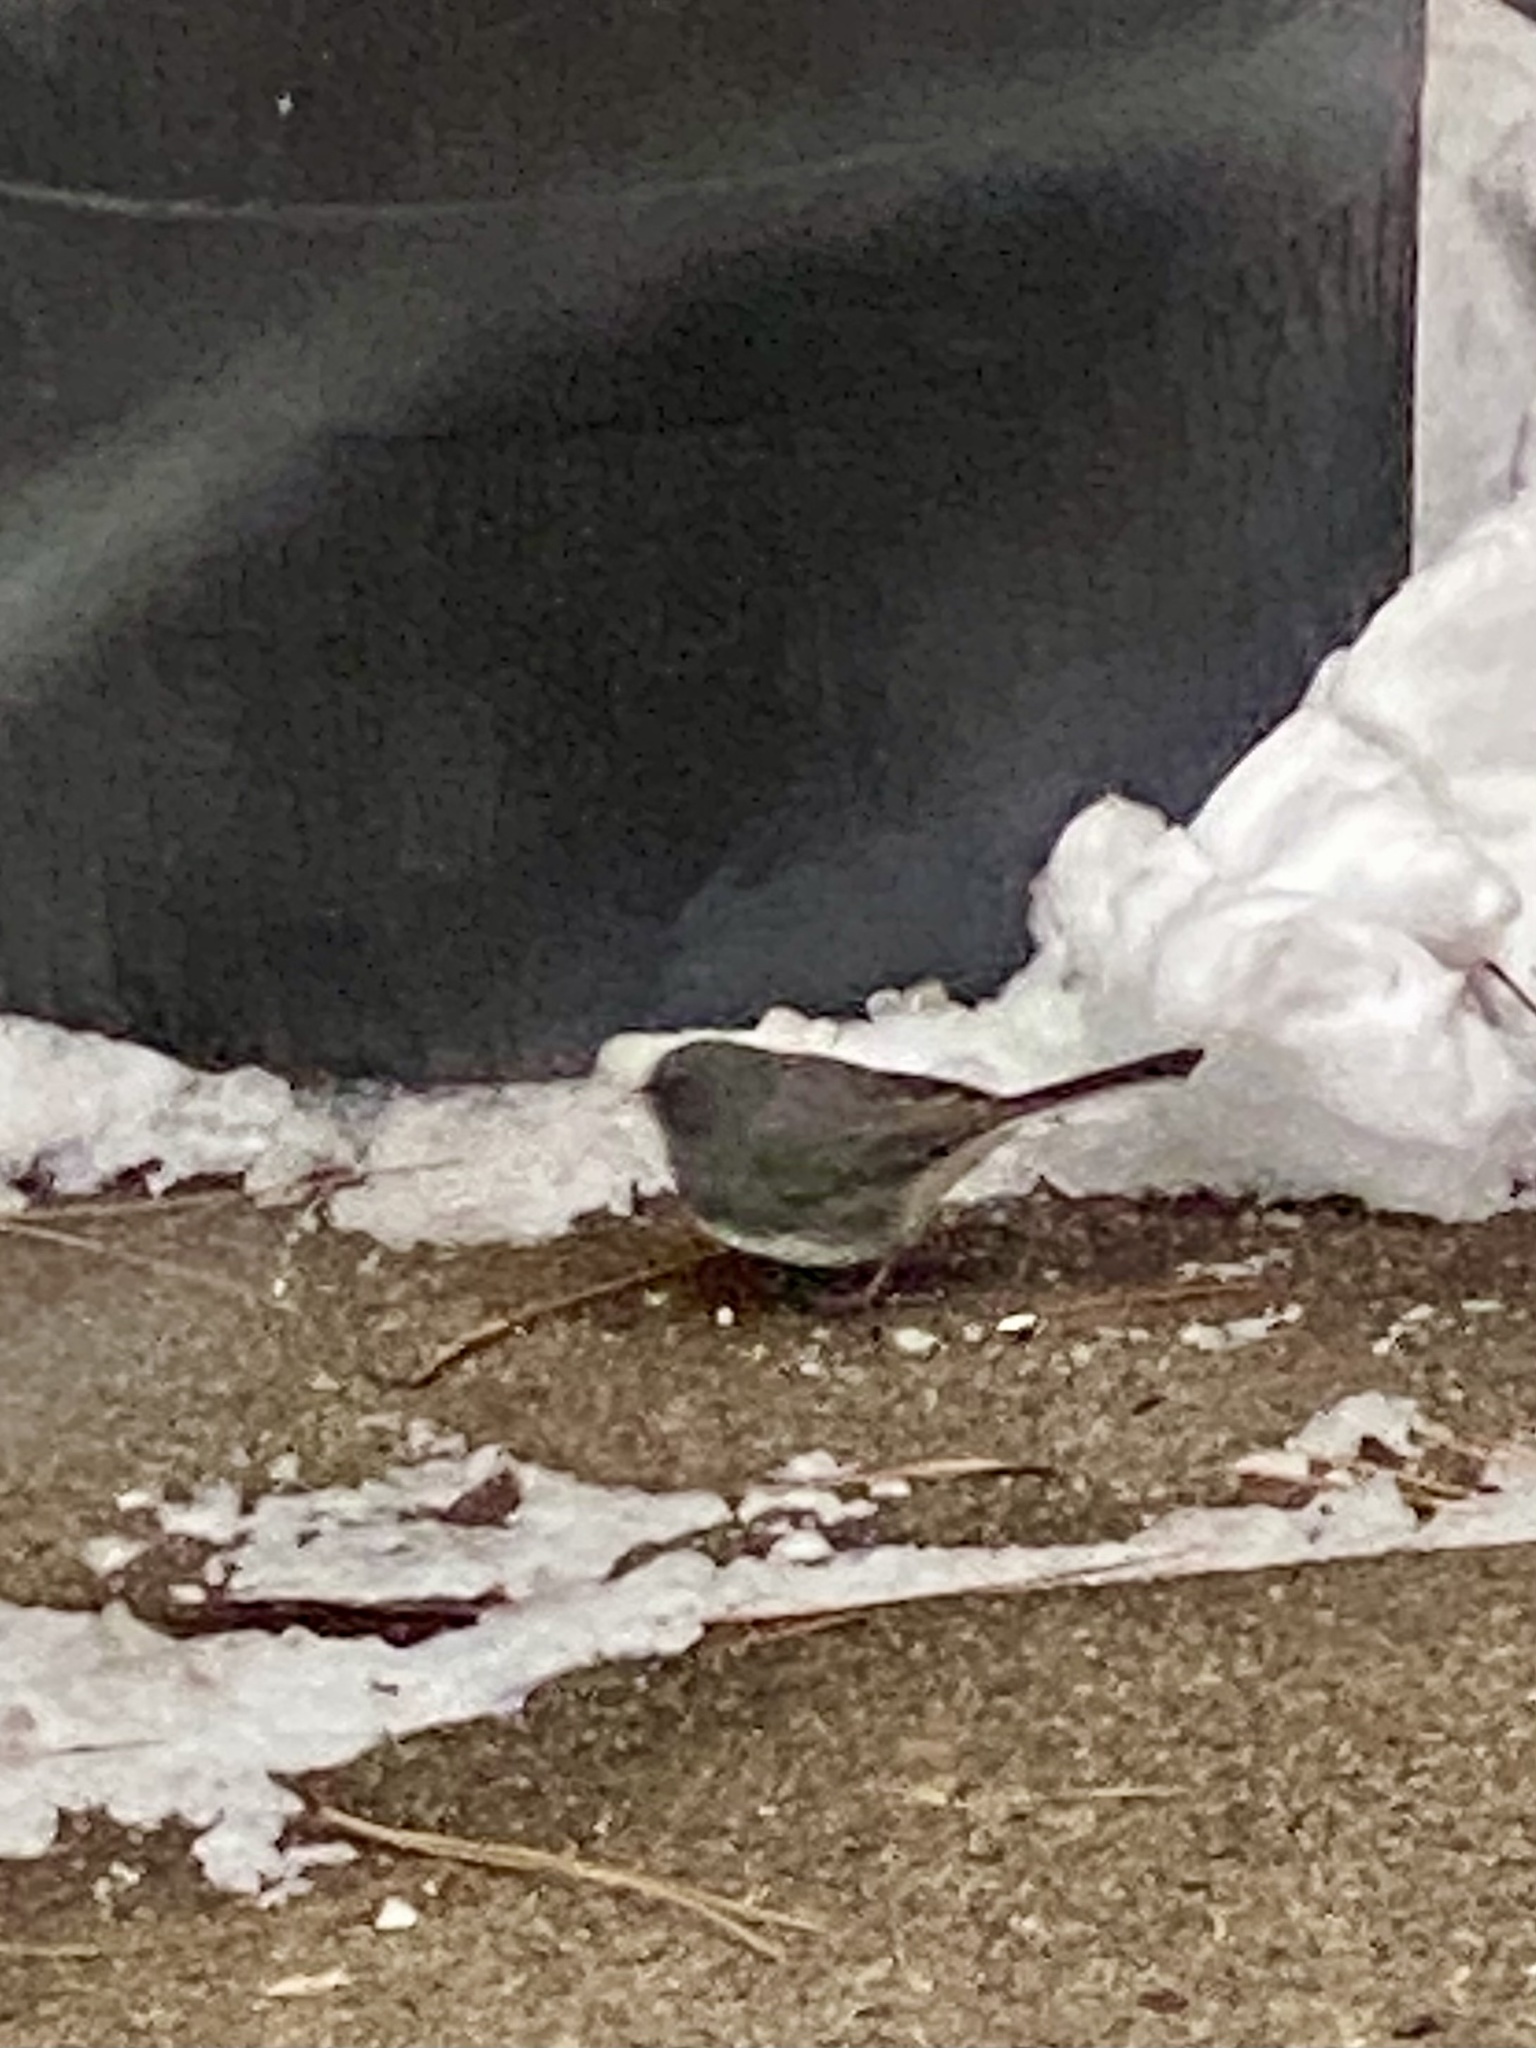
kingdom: Animalia
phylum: Chordata
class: Aves
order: Passeriformes
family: Passerellidae
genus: Junco
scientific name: Junco hyemalis
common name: Dark-eyed junco
